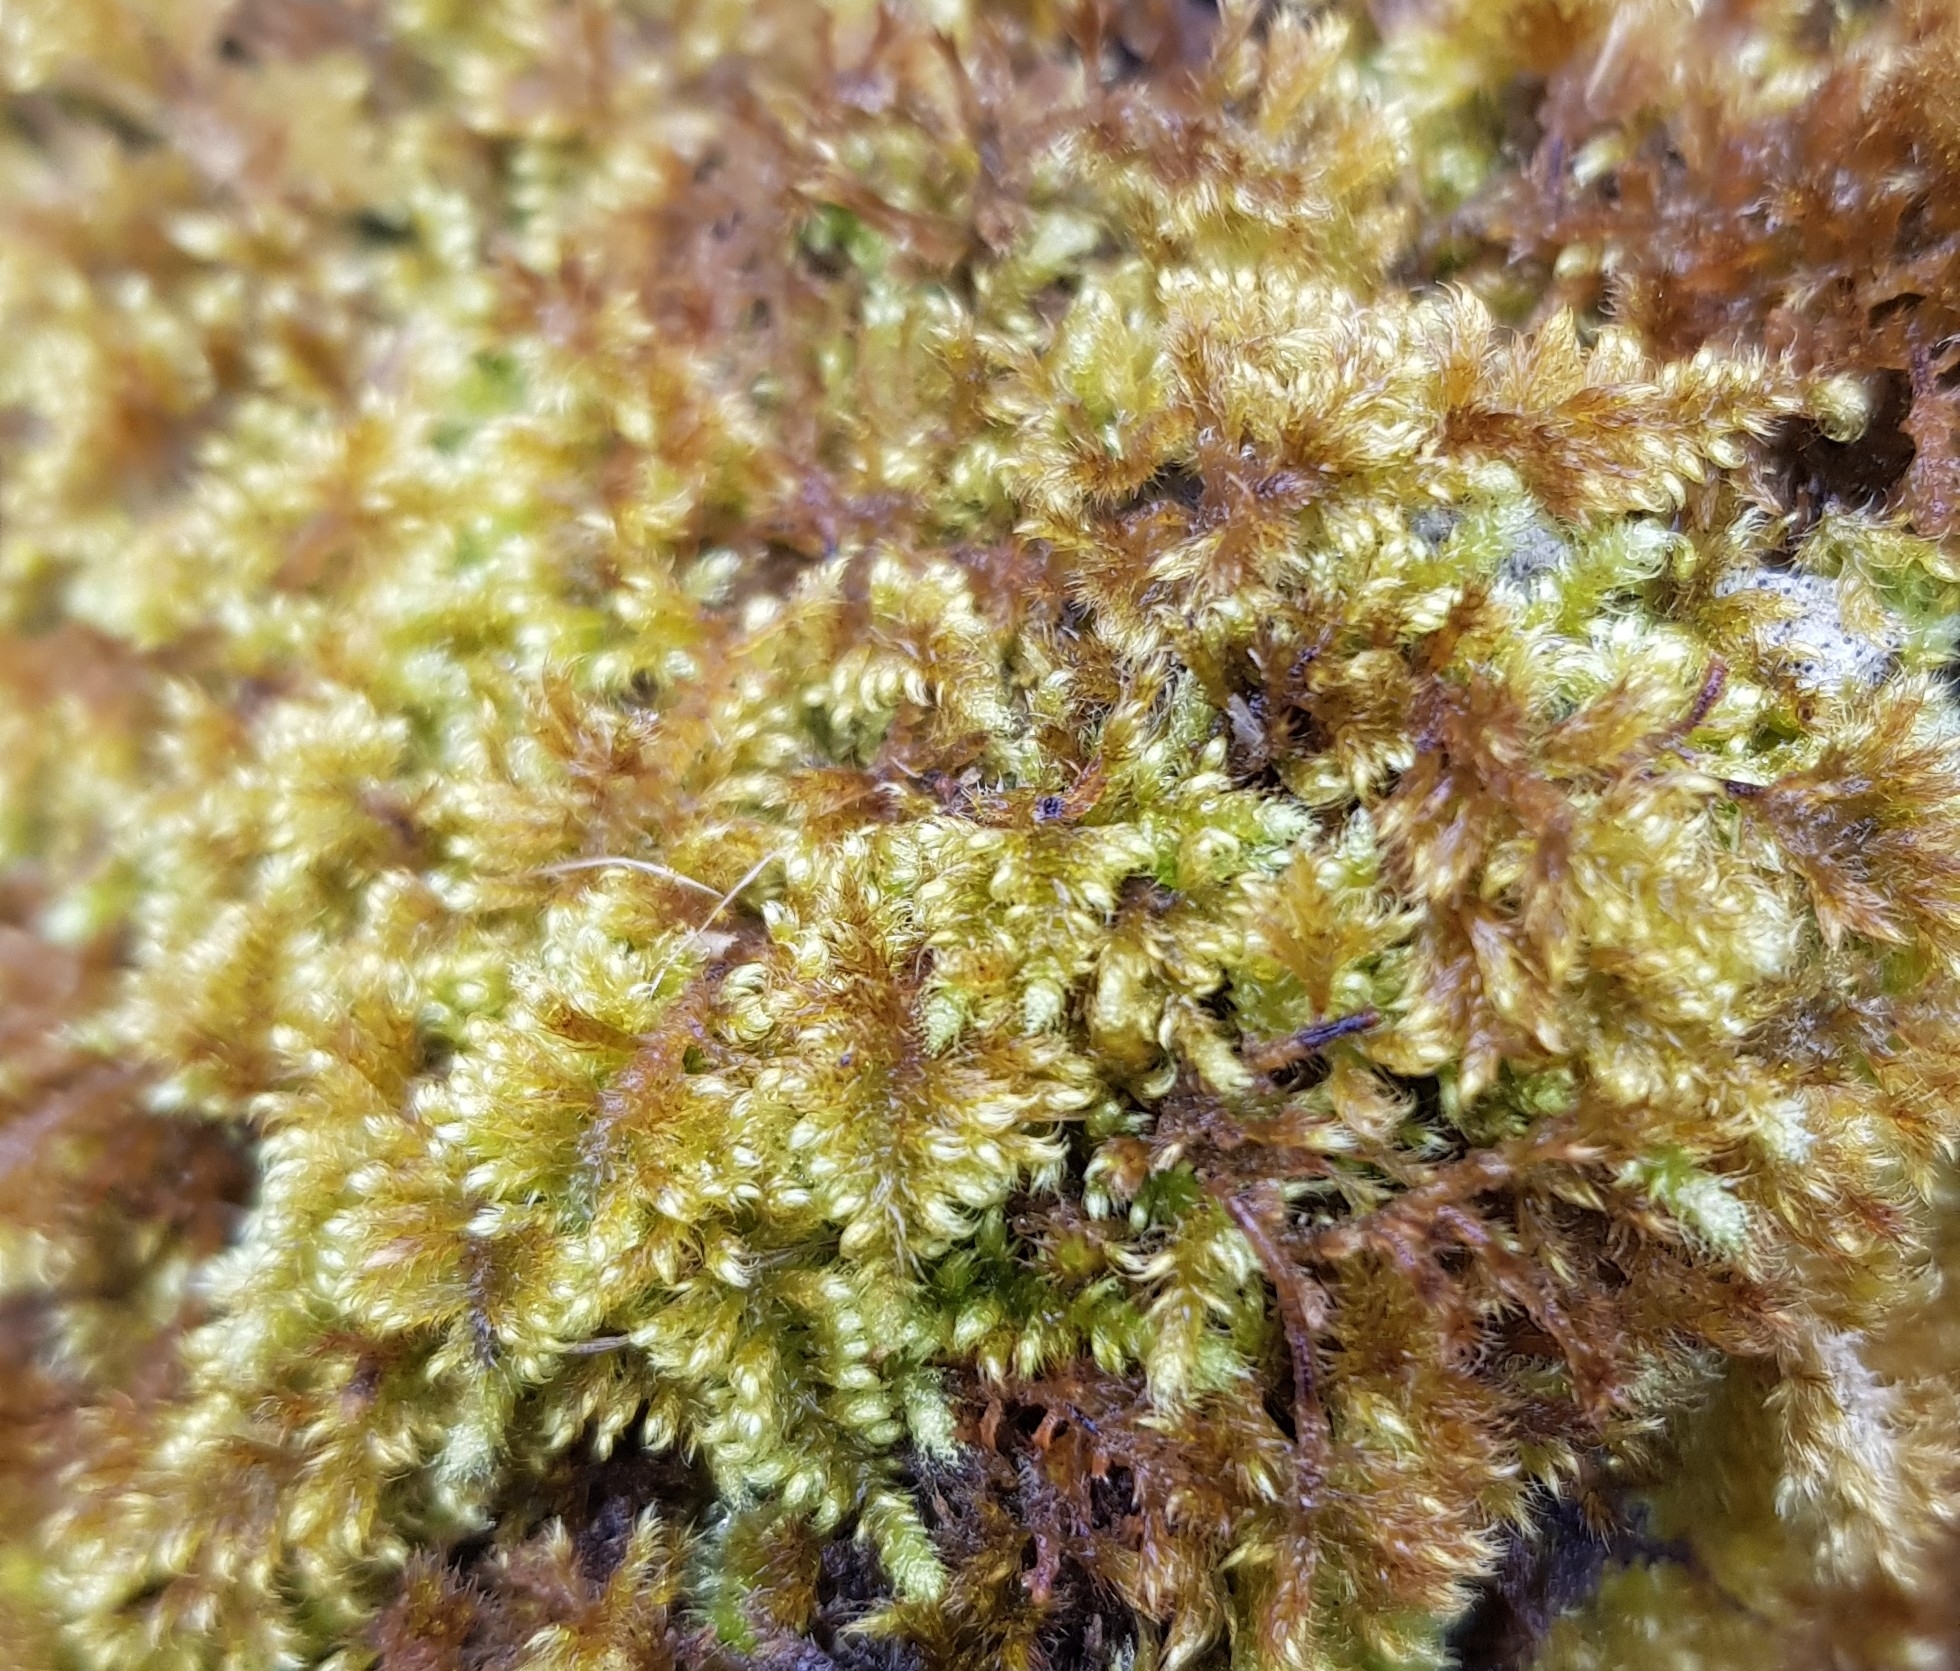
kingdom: Plantae
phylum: Bryophyta
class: Bryopsida
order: Hypnales
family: Myuriaceae
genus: Ctenidium
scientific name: Ctenidium molluscum
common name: Chalk comb-moss
